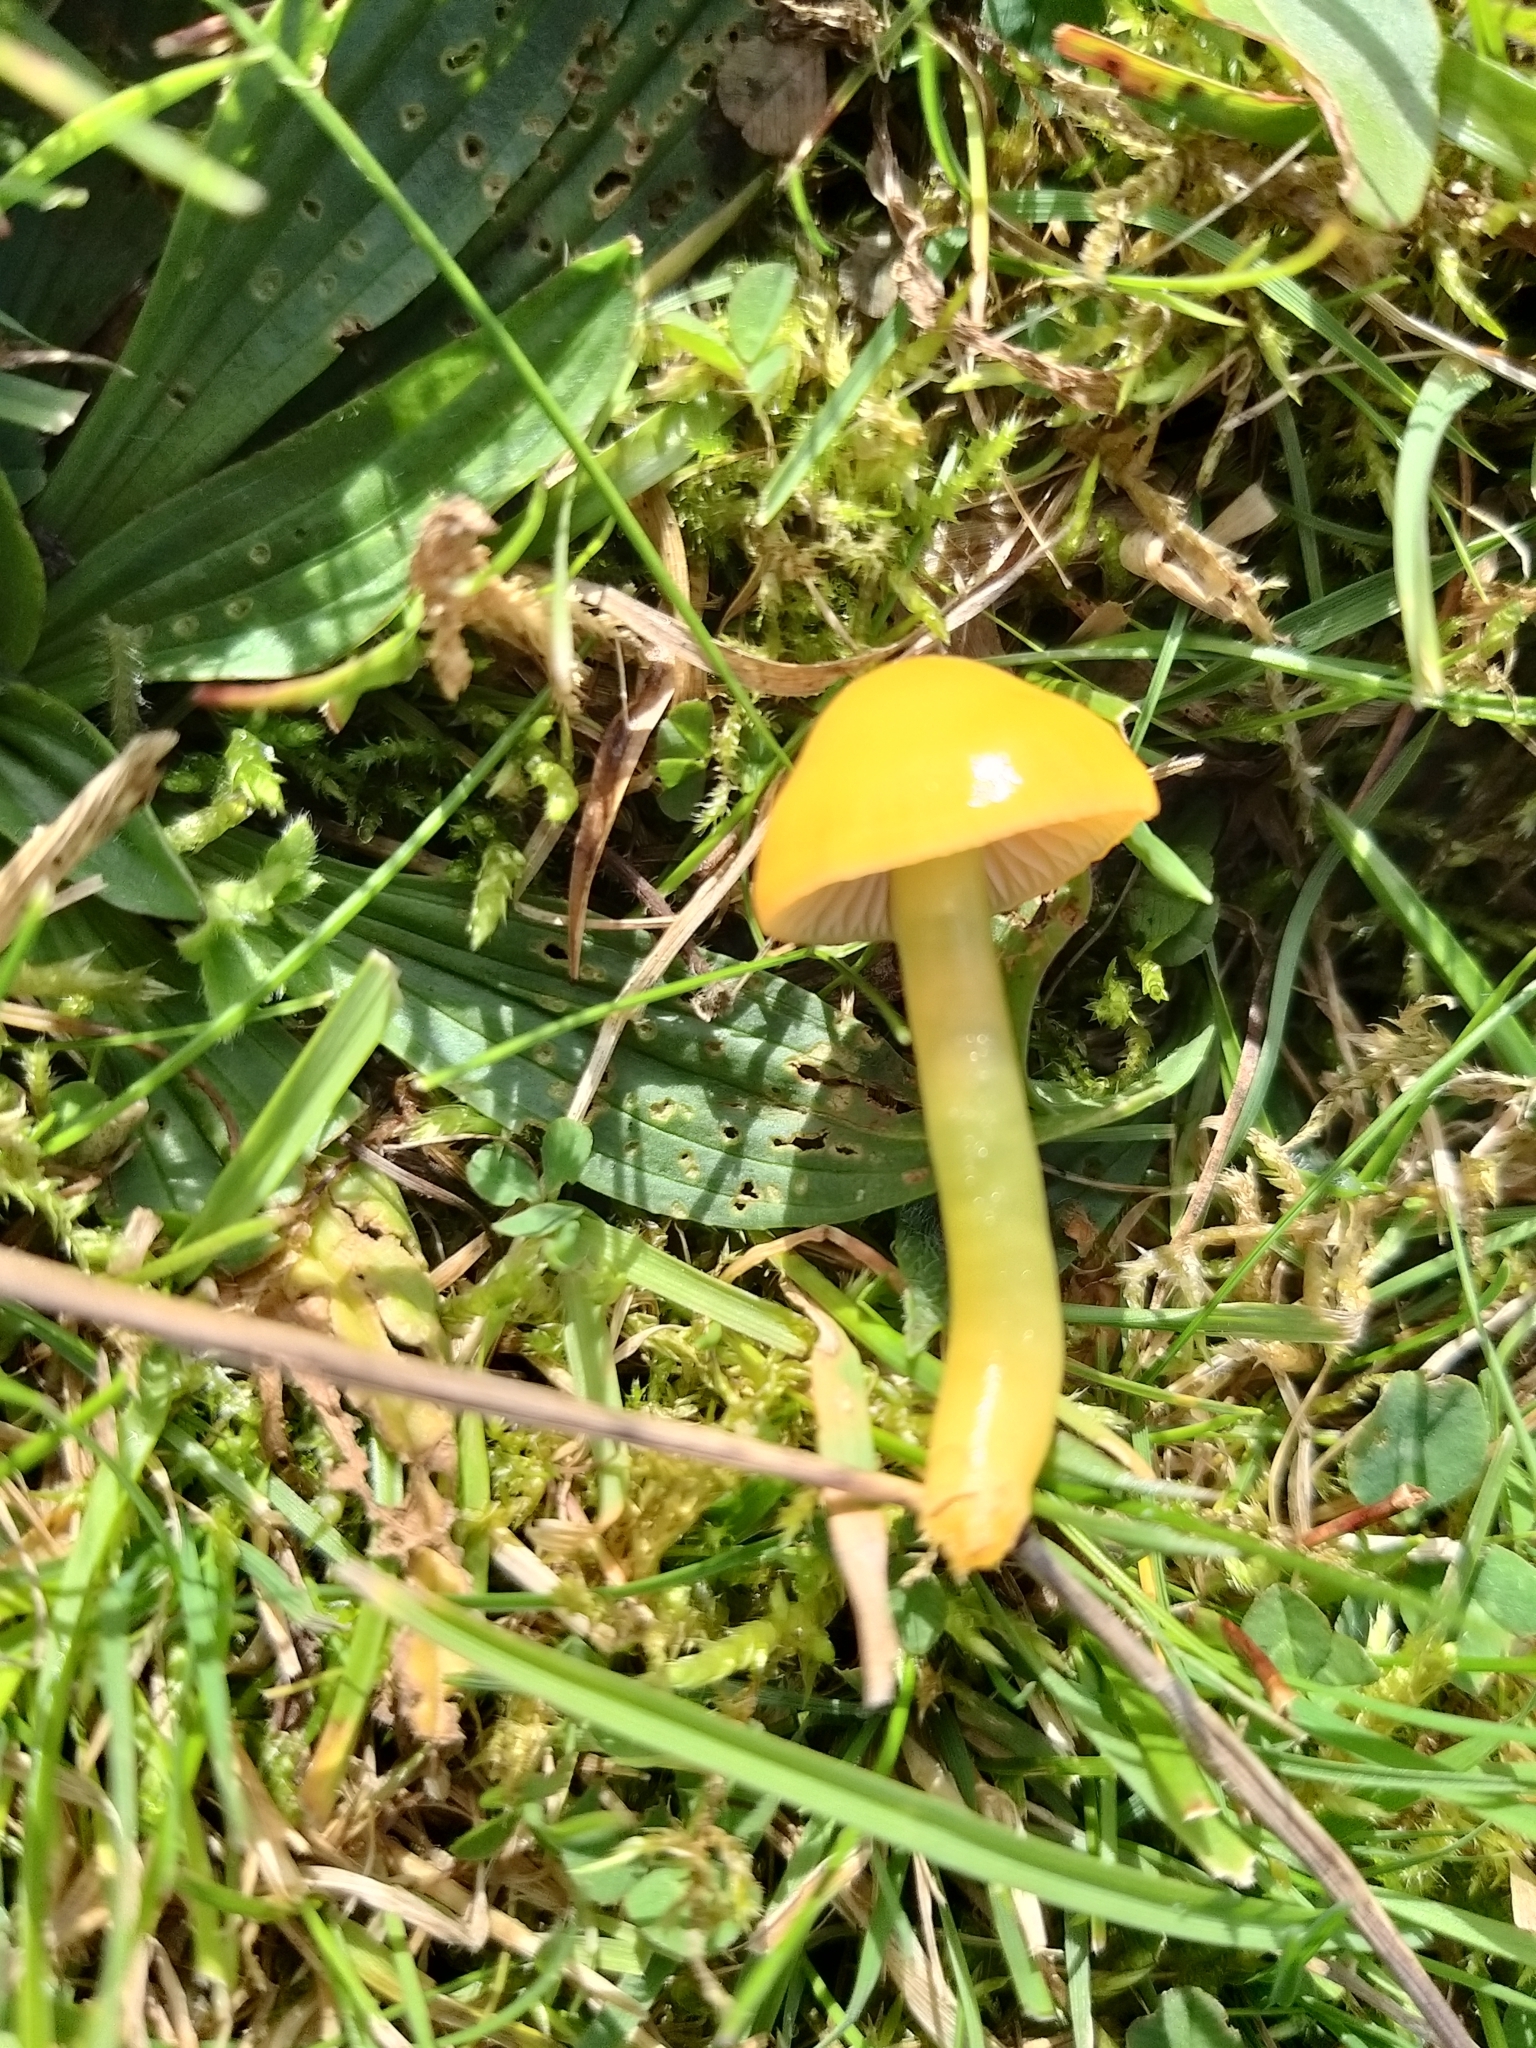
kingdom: Fungi
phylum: Basidiomycota
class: Agaricomycetes
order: Agaricales
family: Hygrophoraceae
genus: Gliophorus
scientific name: Gliophorus psittacinus
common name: Parrot wax-cap
